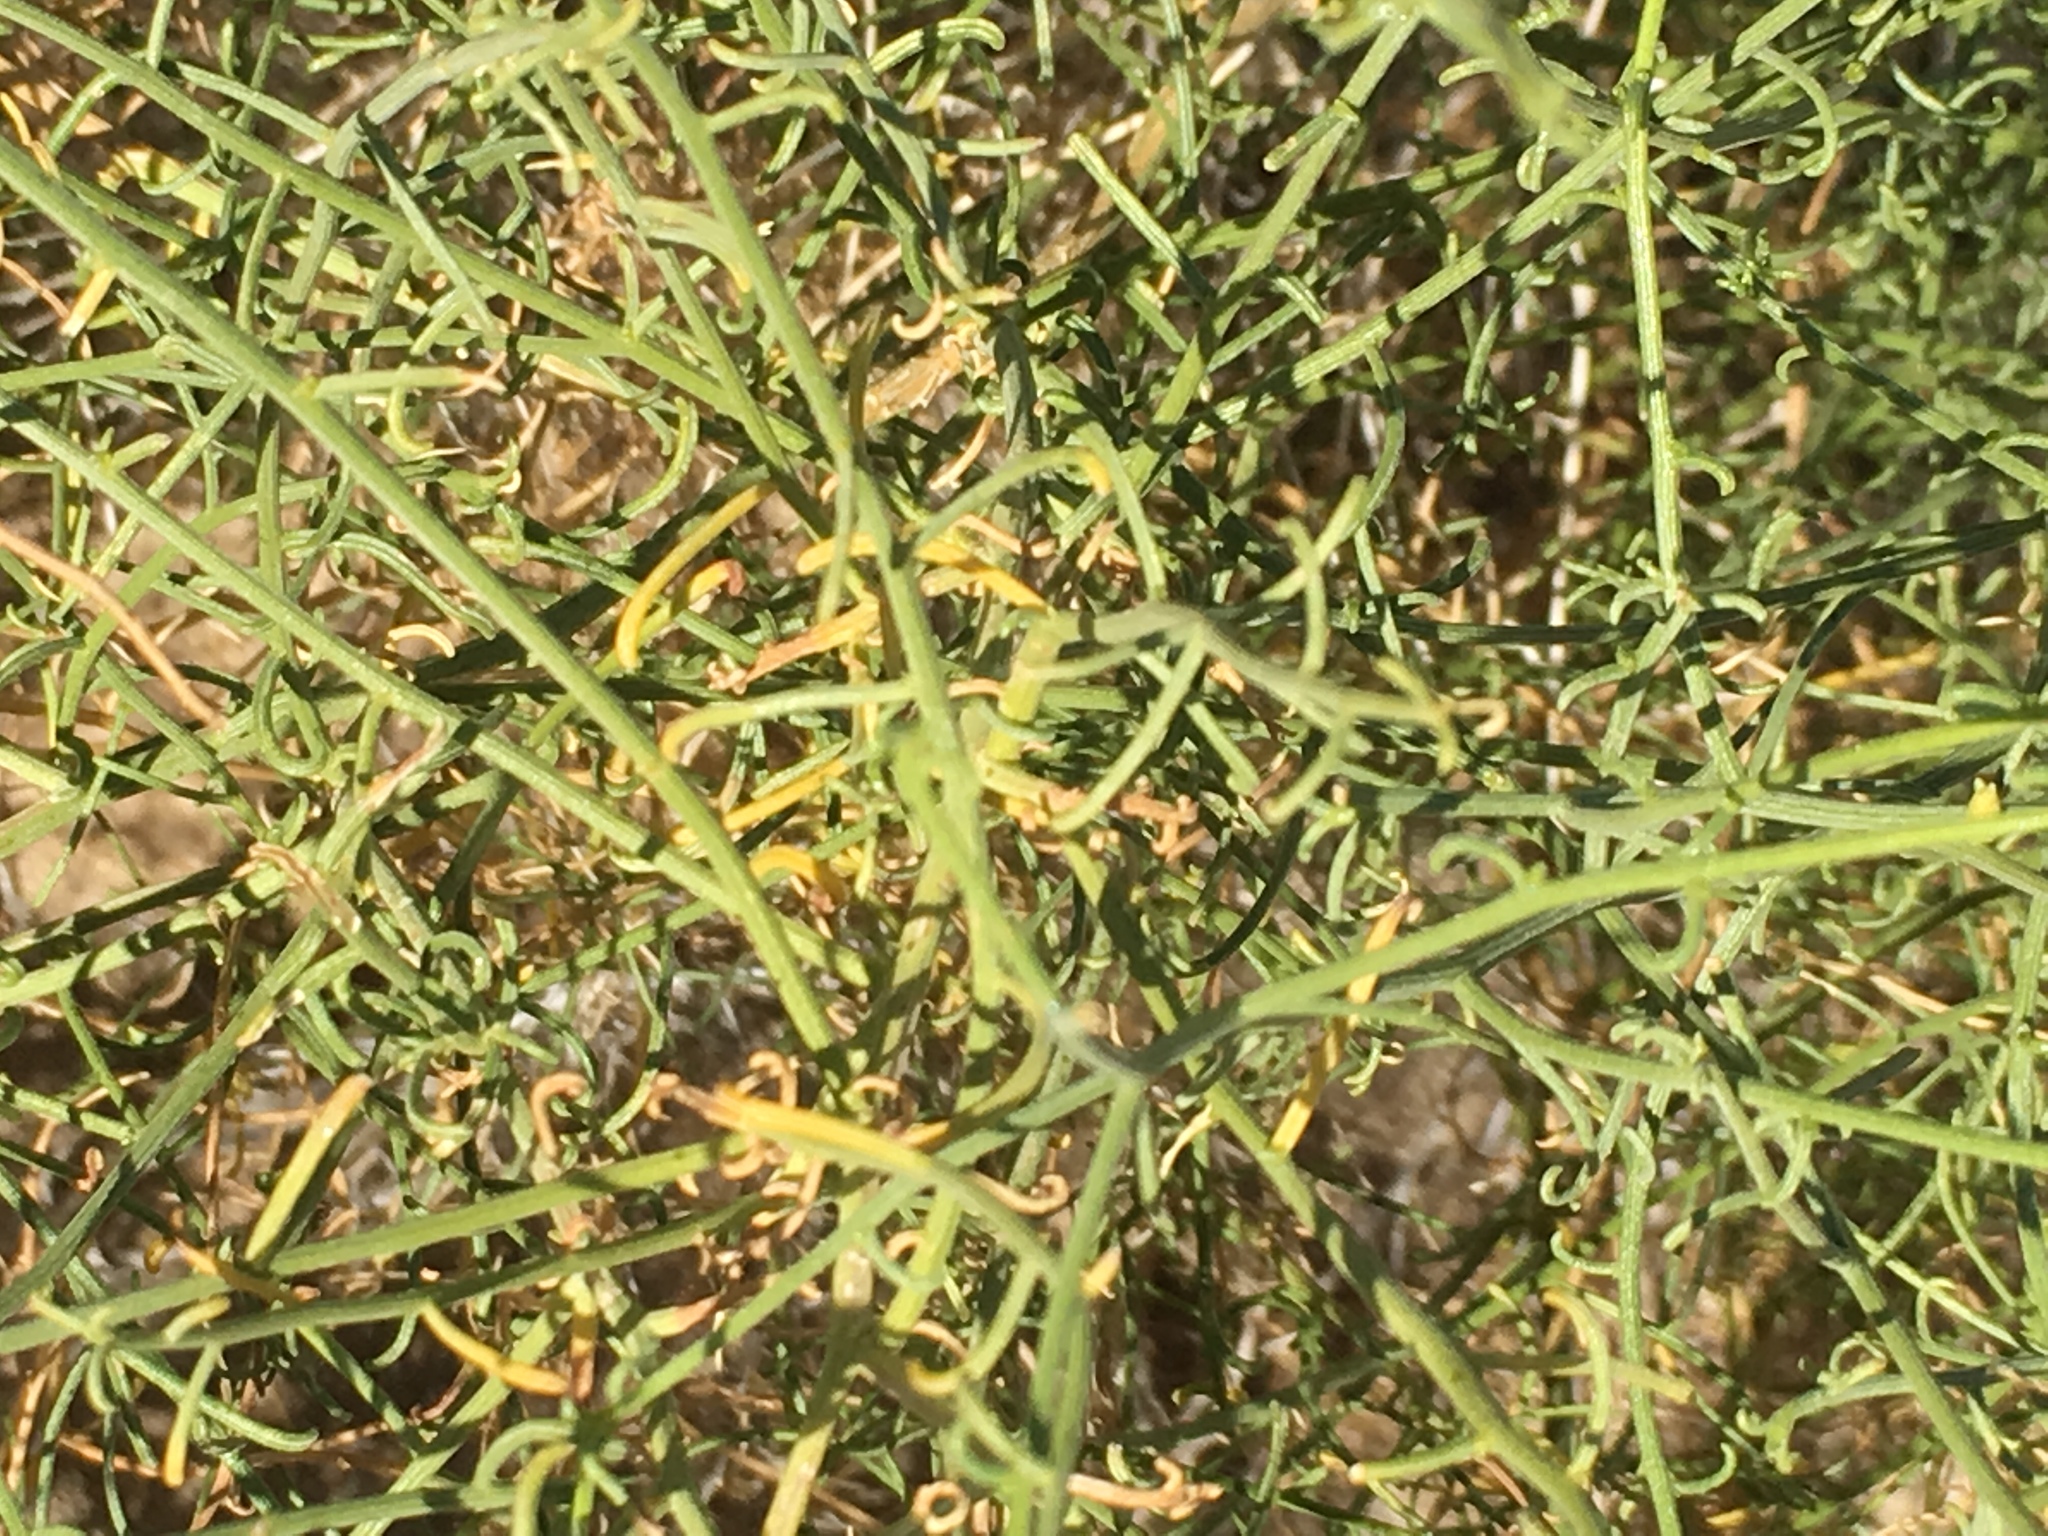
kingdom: Plantae
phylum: Tracheophyta
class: Magnoliopsida
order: Asterales
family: Asteraceae
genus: Ambrosia
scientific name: Ambrosia salsola
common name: Burrobrush
